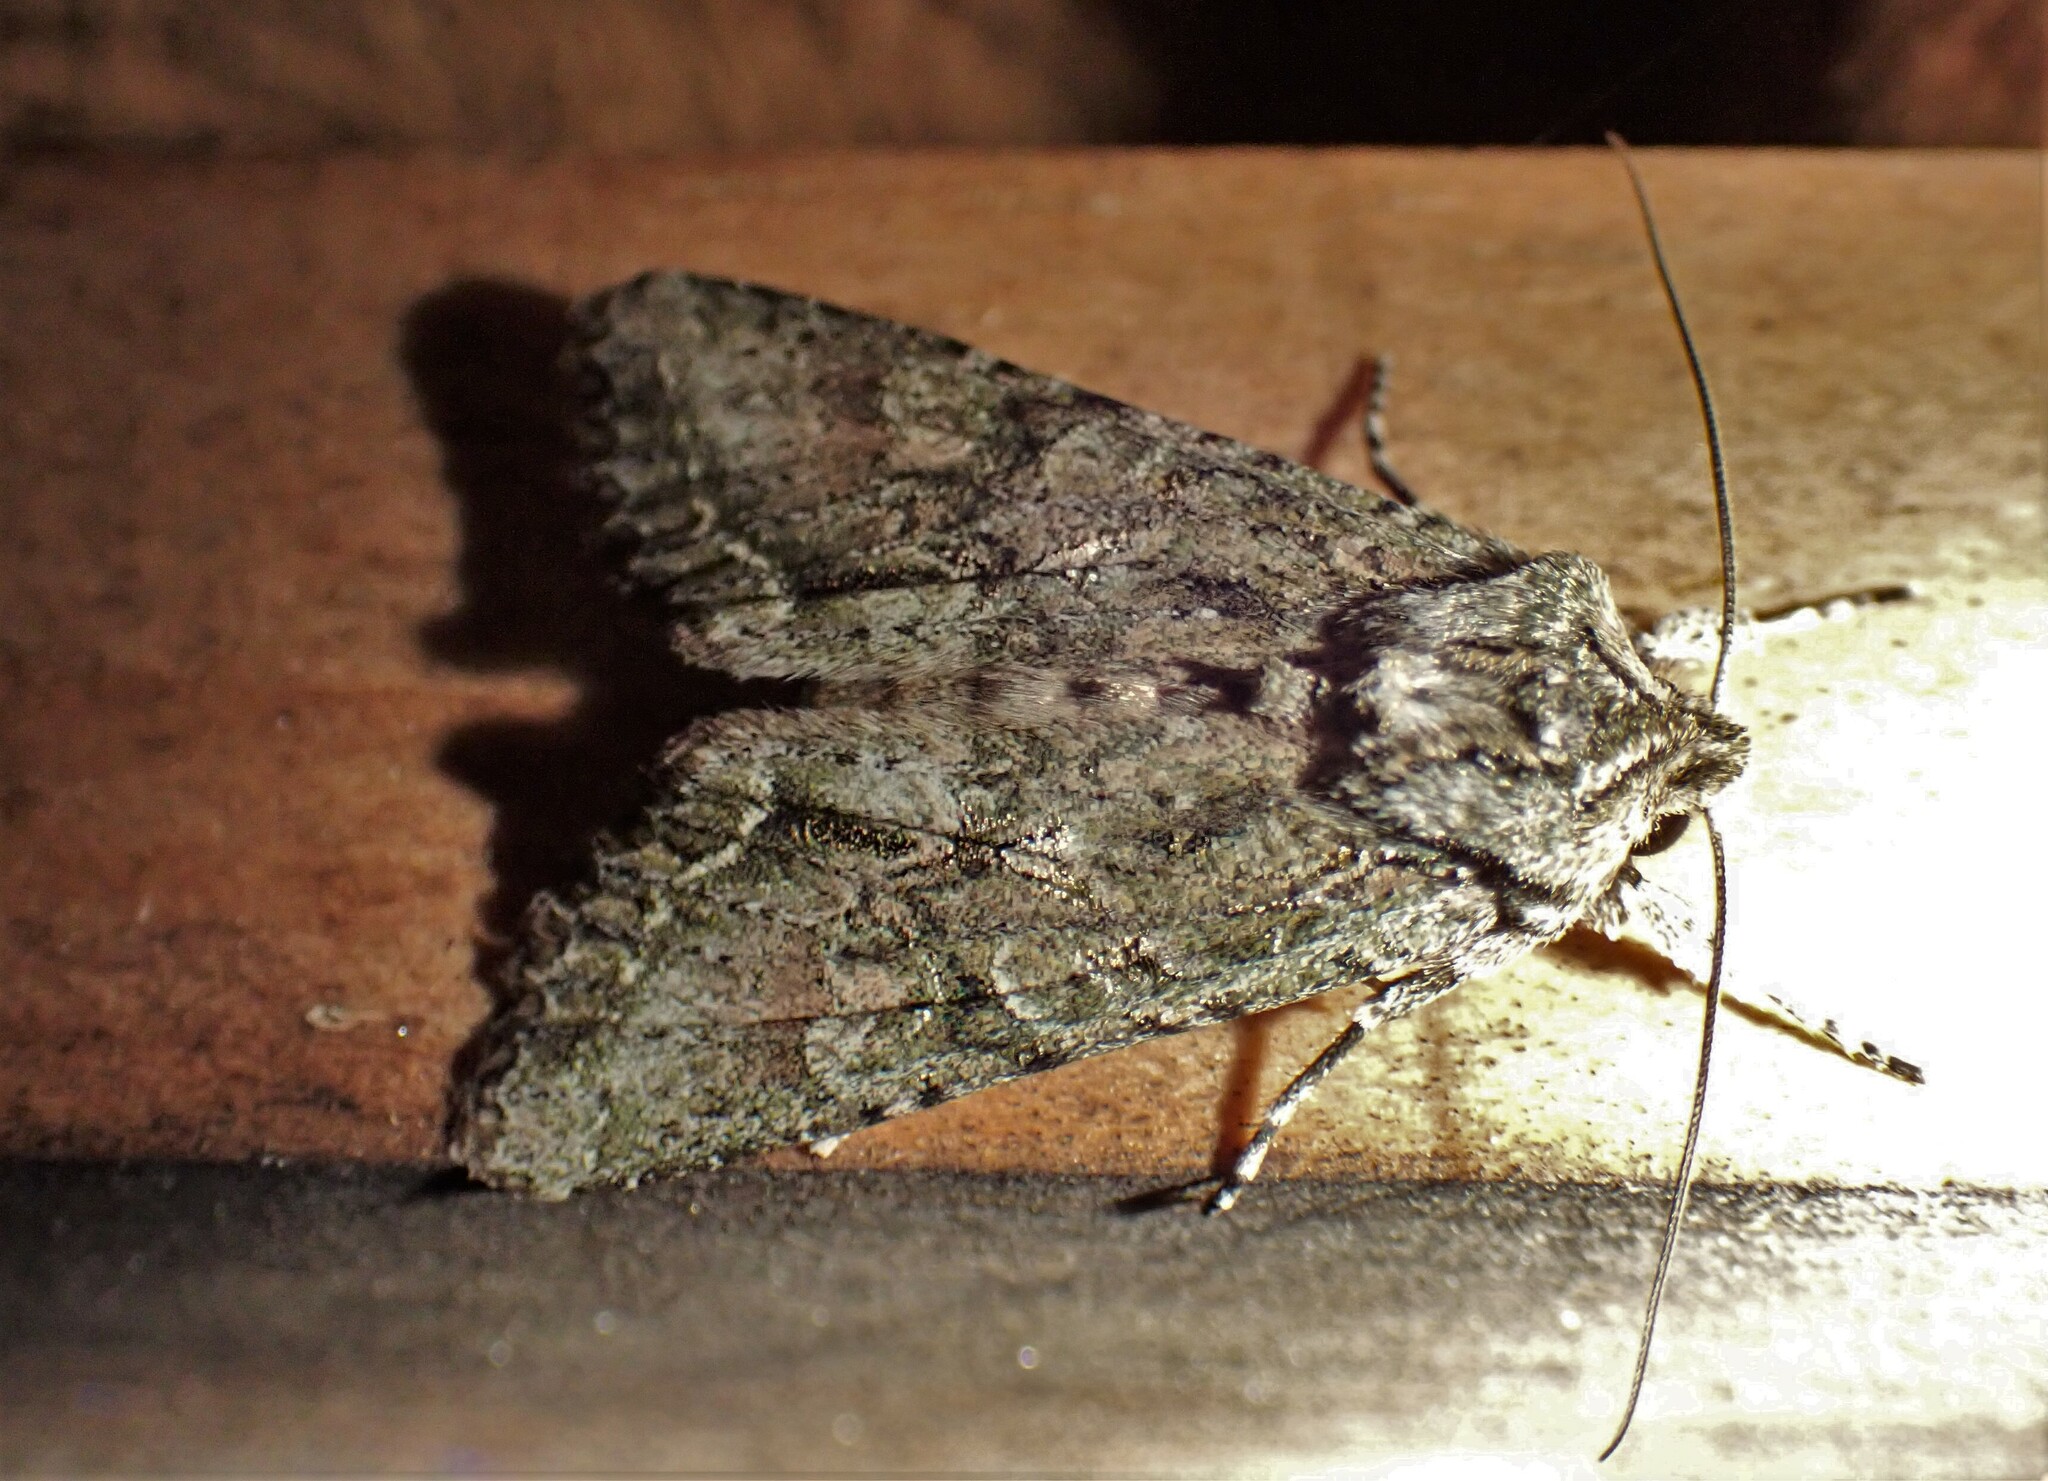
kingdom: Animalia
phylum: Arthropoda
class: Insecta
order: Lepidoptera
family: Noctuidae
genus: Ichneutica
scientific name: Ichneutica mutans
